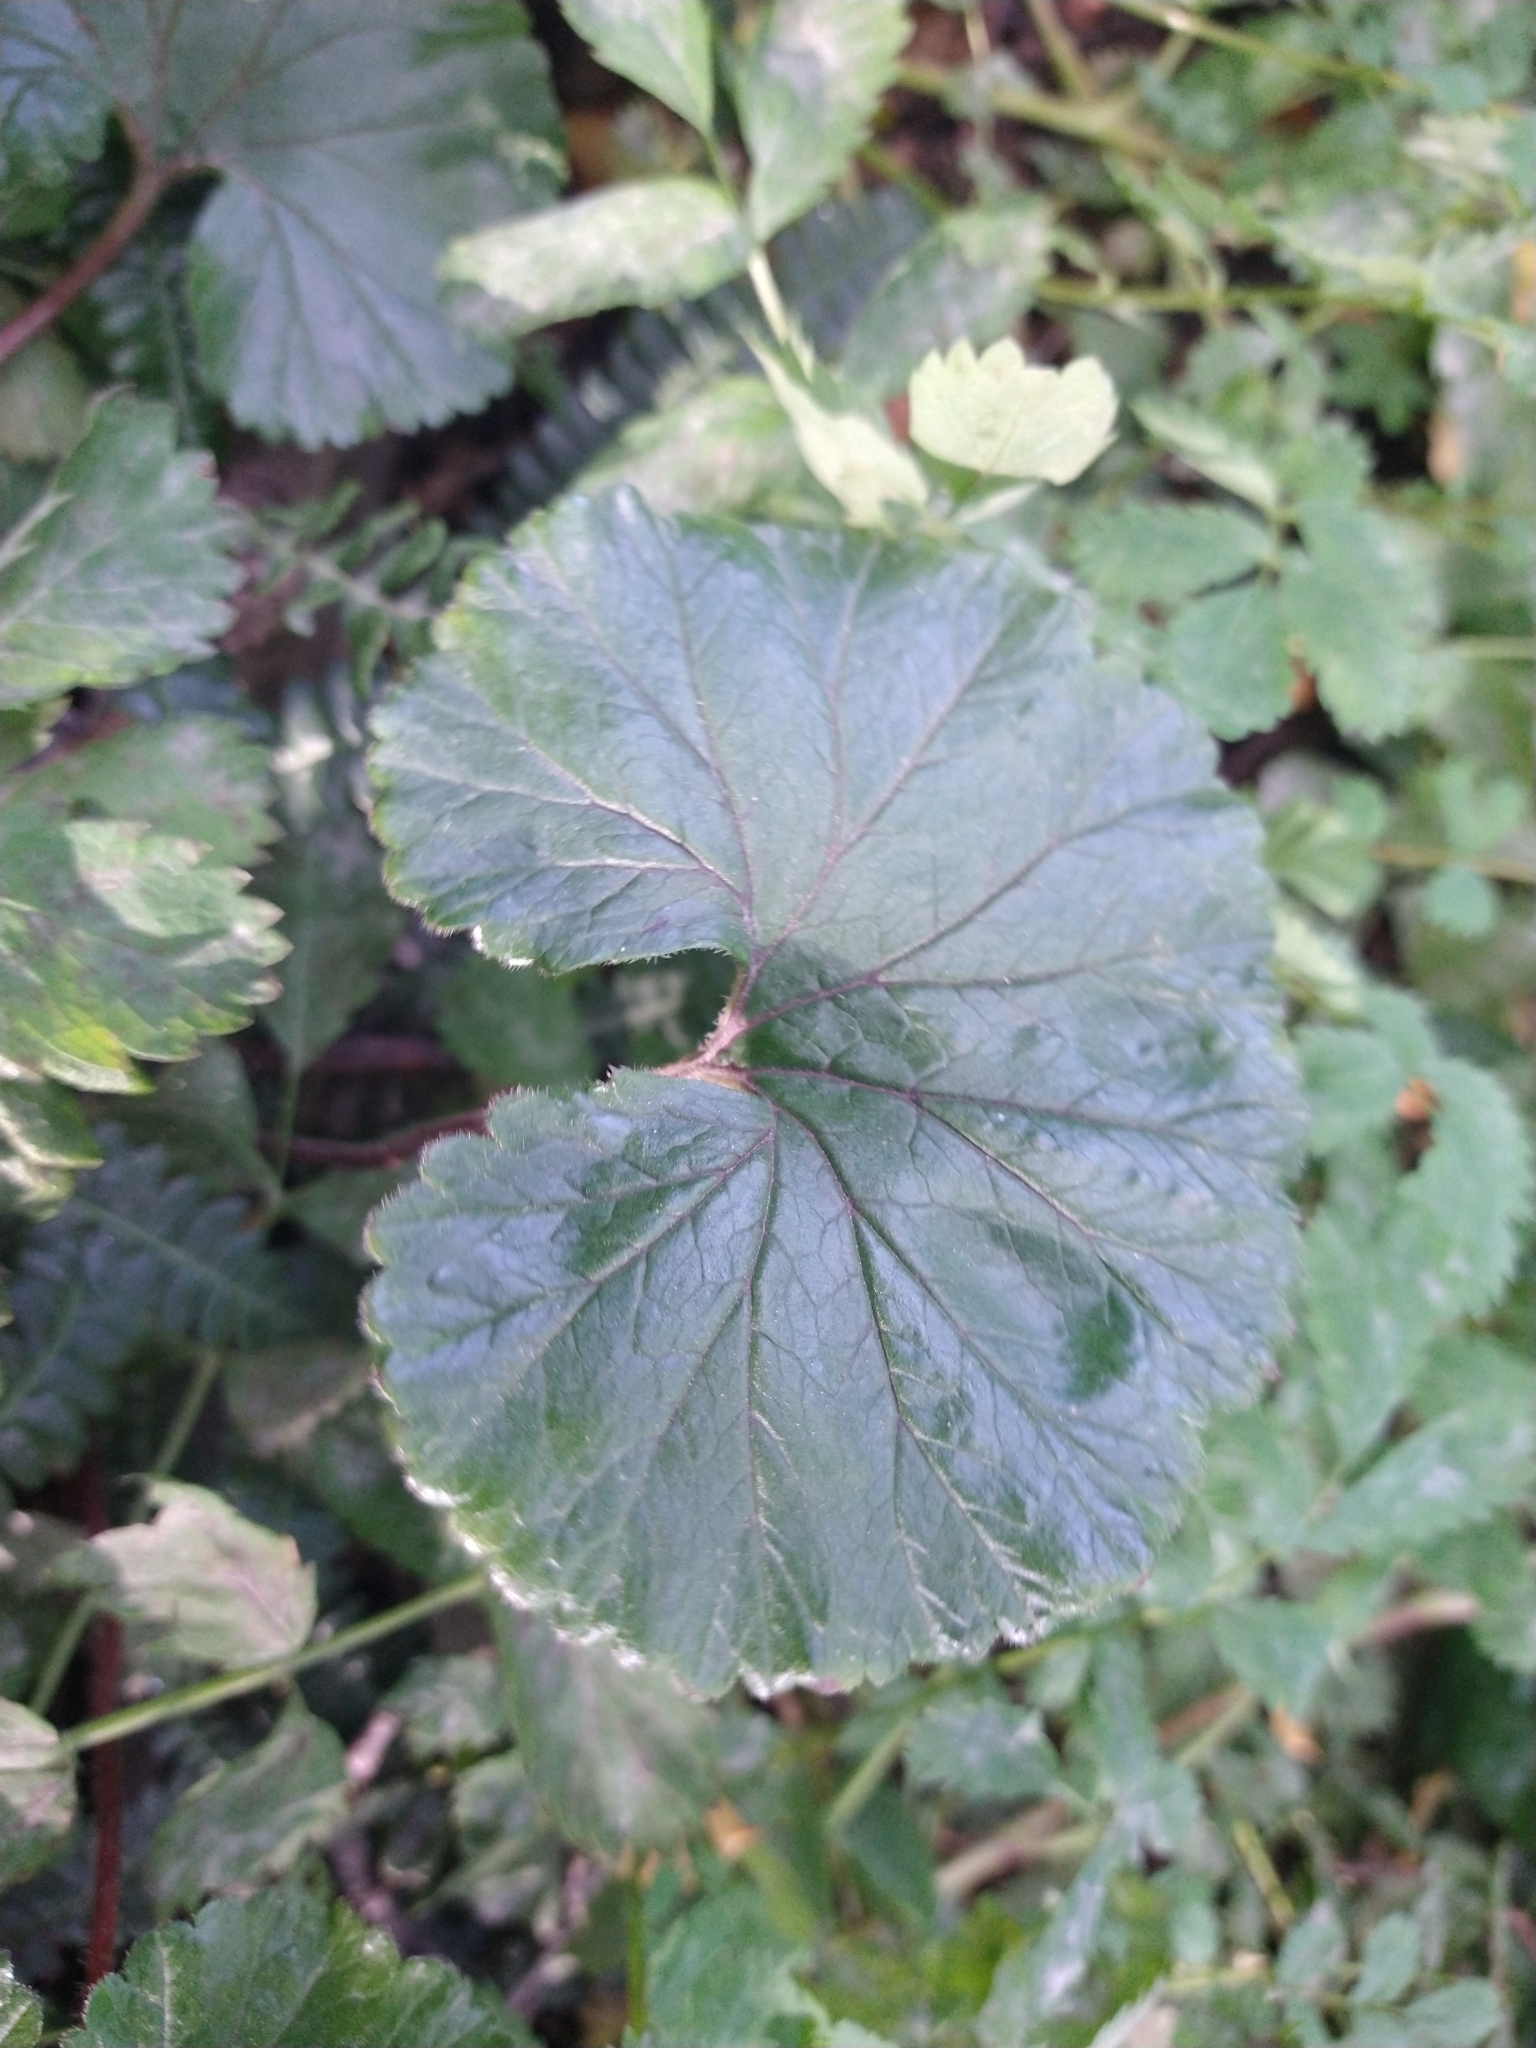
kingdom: Plantae
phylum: Tracheophyta
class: Magnoliopsida
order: Gunnerales
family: Gunneraceae
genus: Gunnera
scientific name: Gunnera magellanica
